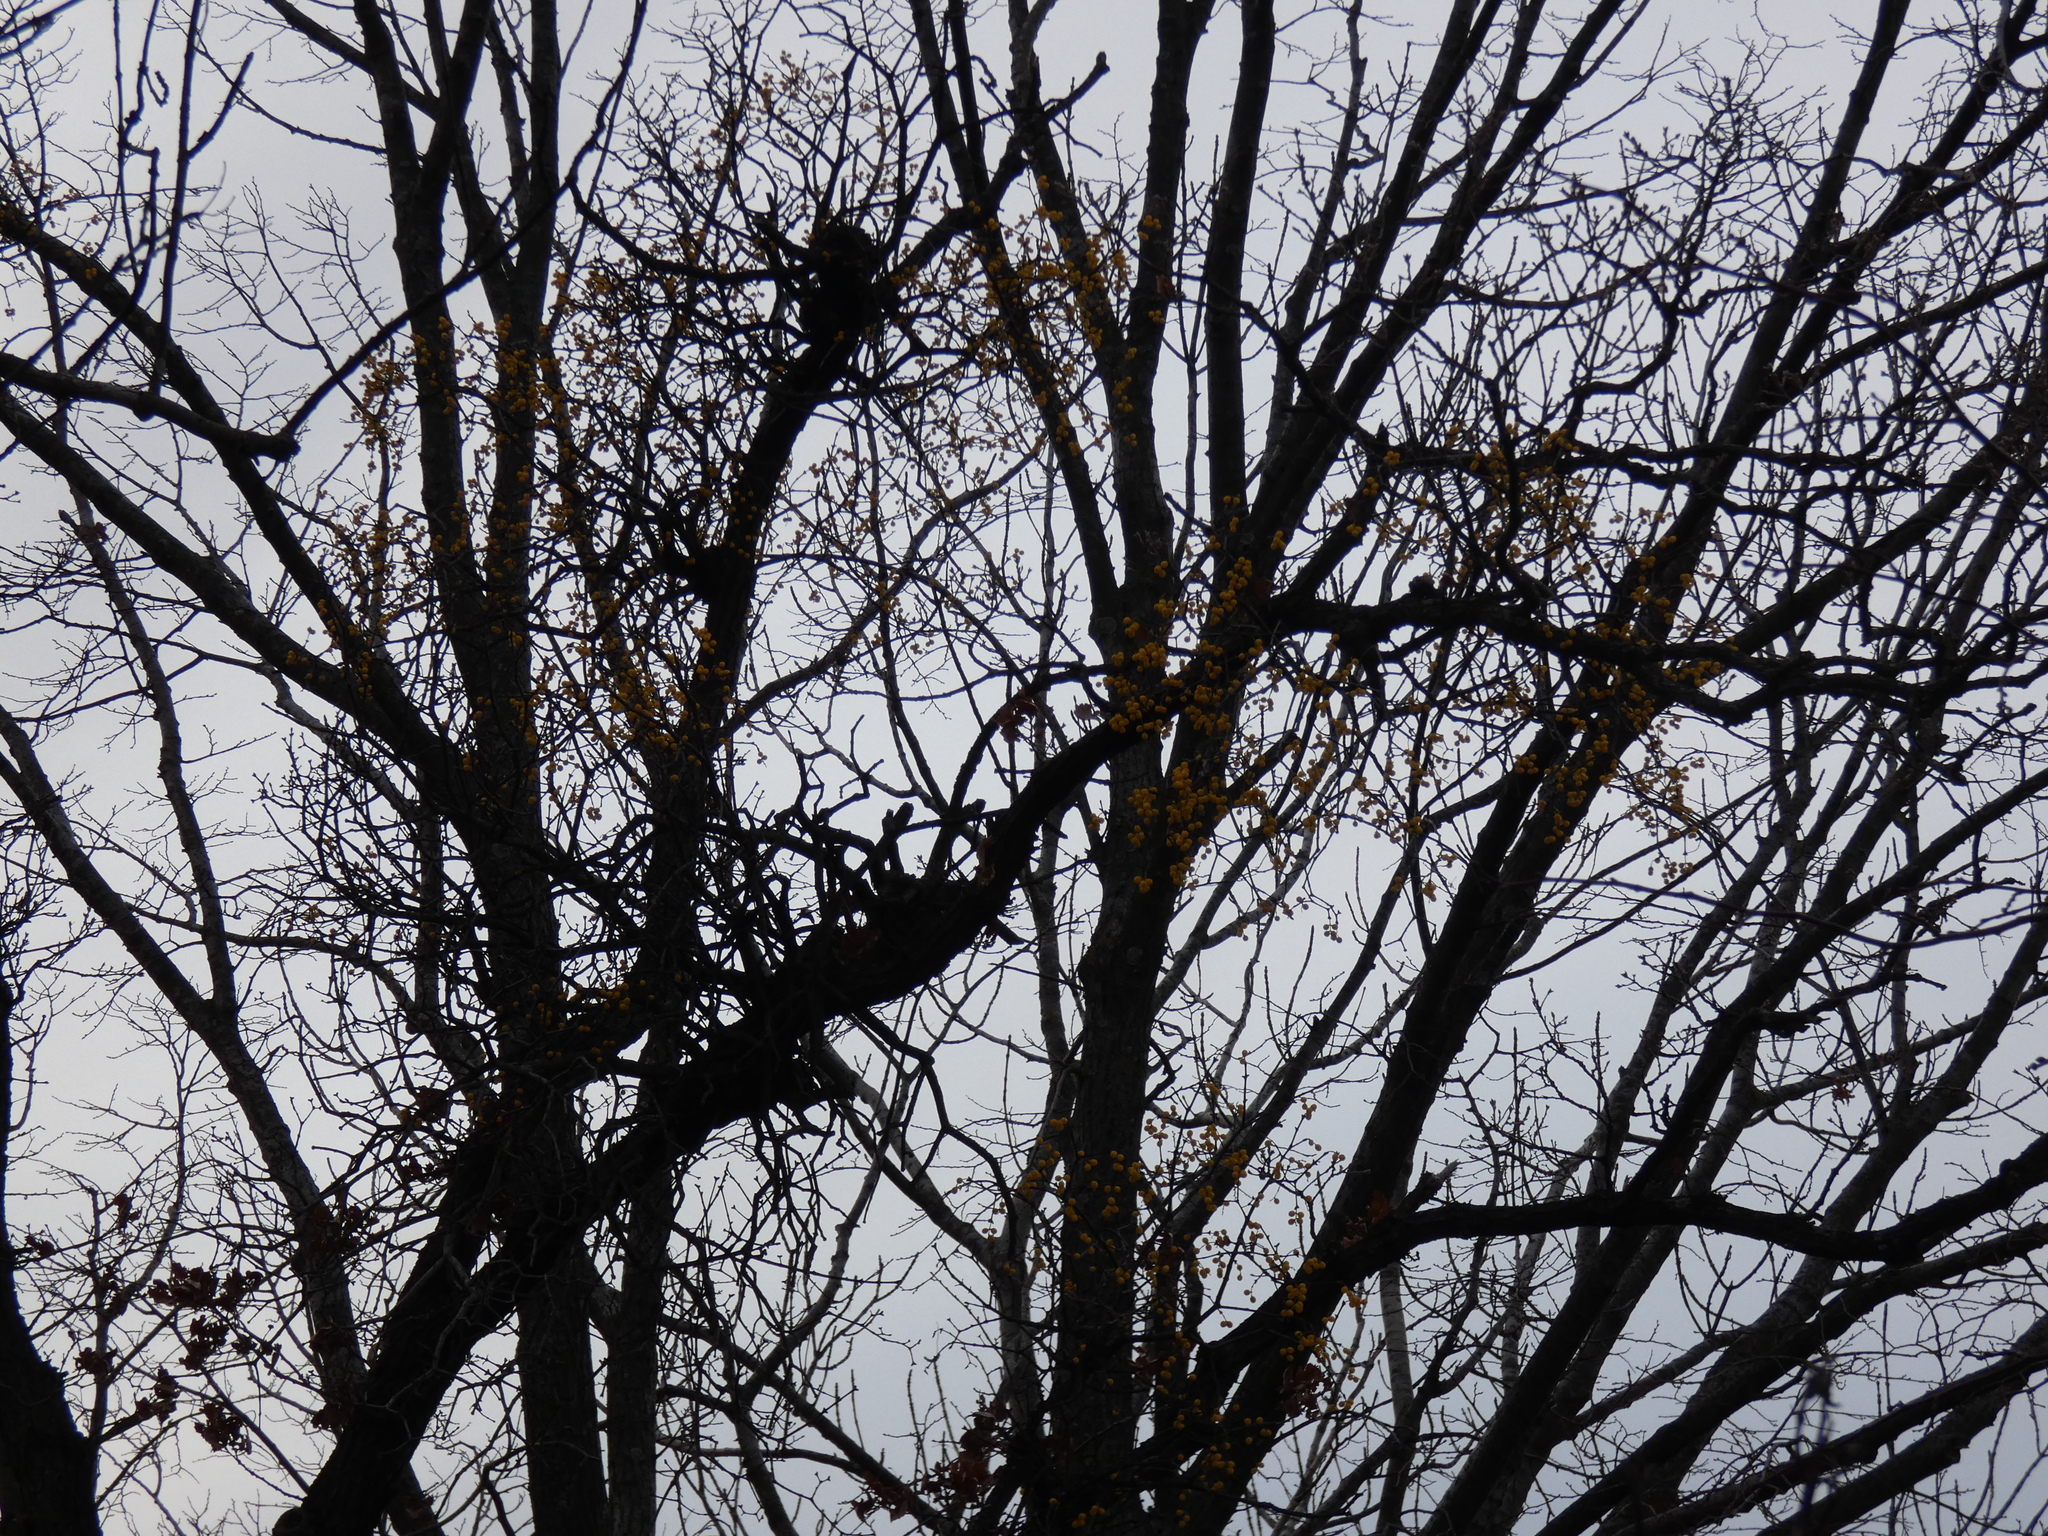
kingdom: Plantae
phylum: Tracheophyta
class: Magnoliopsida
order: Santalales
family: Loranthaceae
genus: Loranthus
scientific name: Loranthus europaeus
